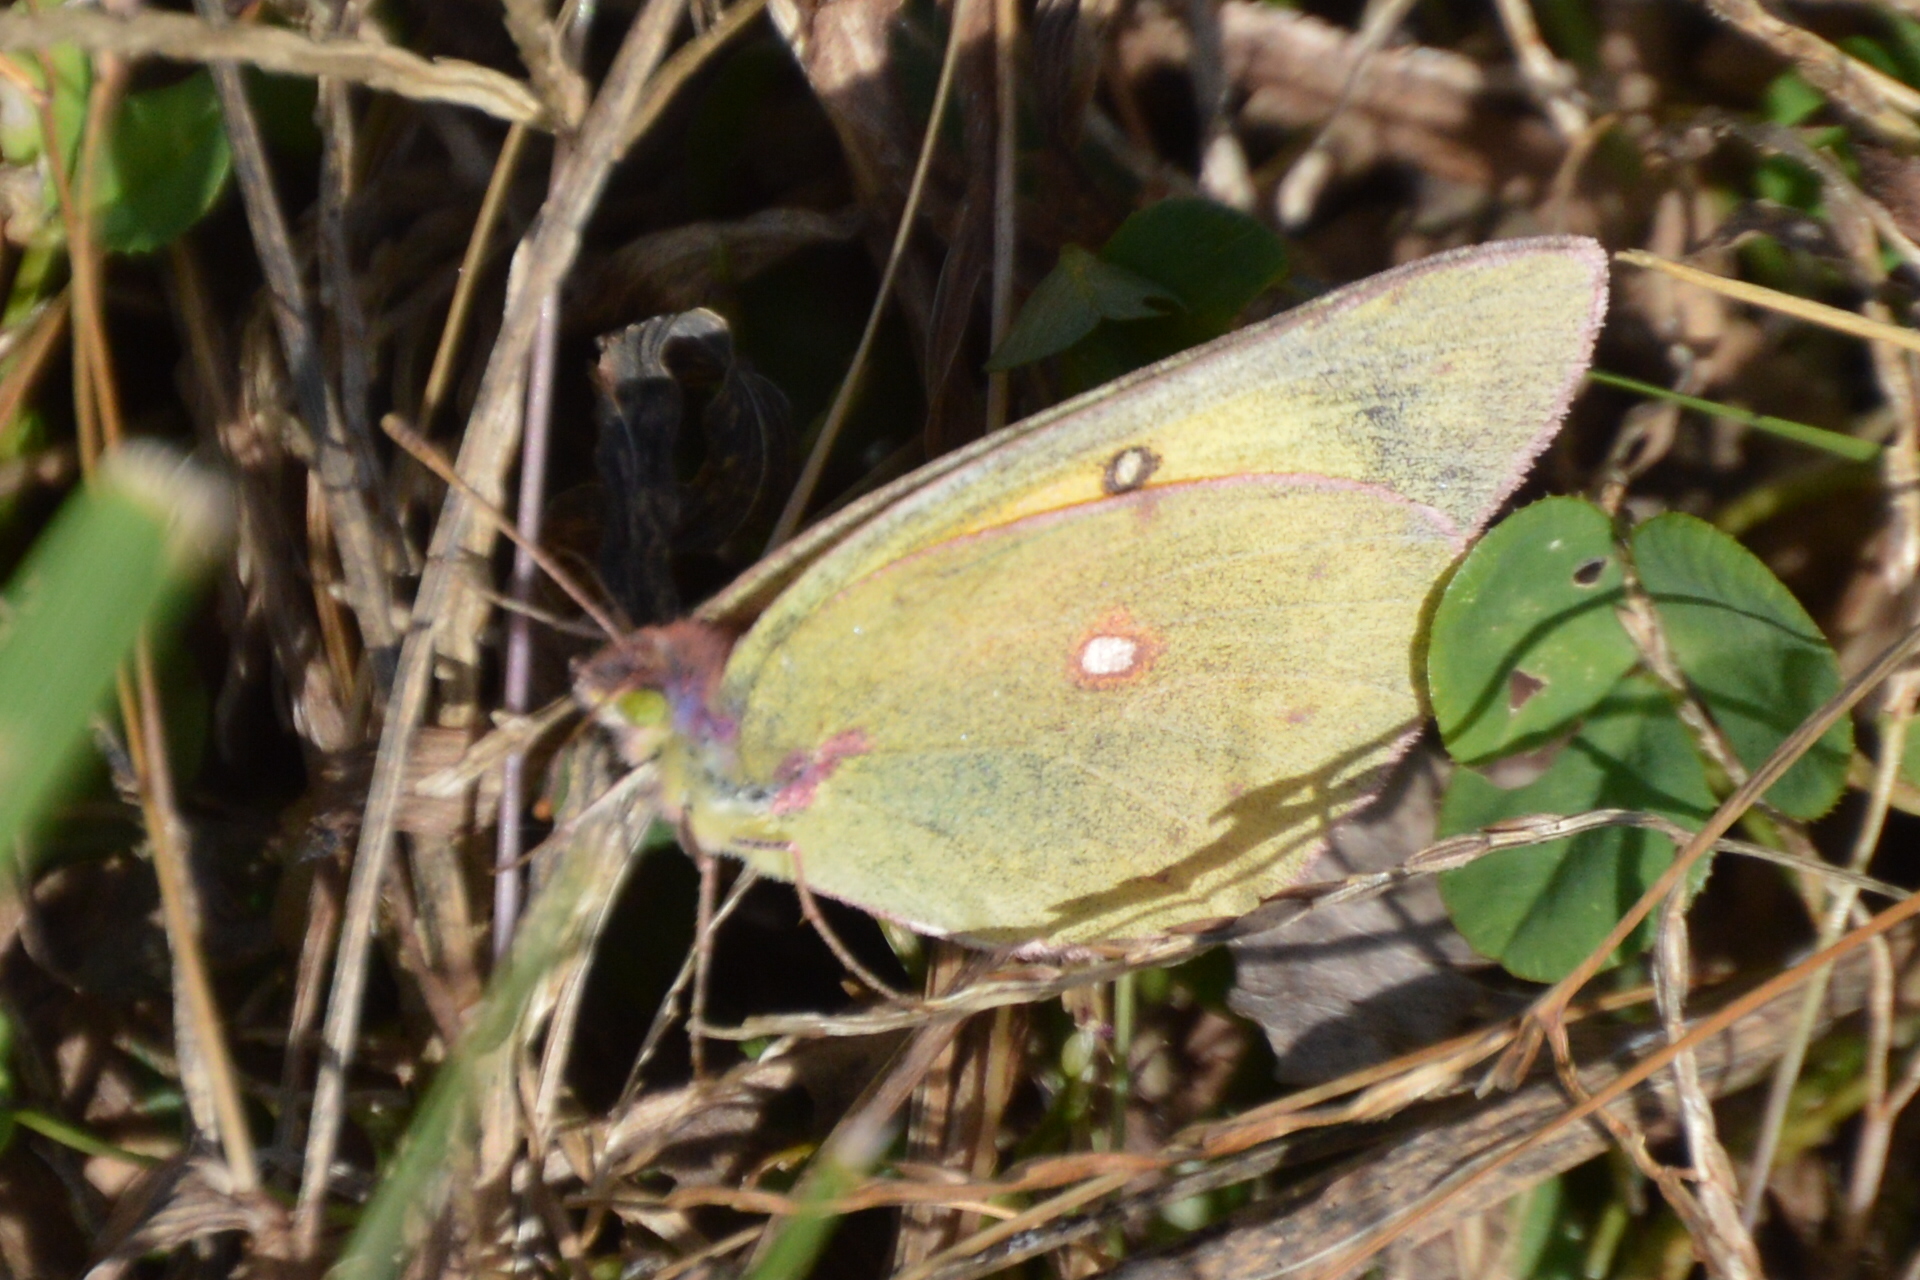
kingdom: Animalia
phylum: Arthropoda
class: Insecta
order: Lepidoptera
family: Pieridae
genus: Colias
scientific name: Colias eurytheme
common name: Alfalfa butterfly
